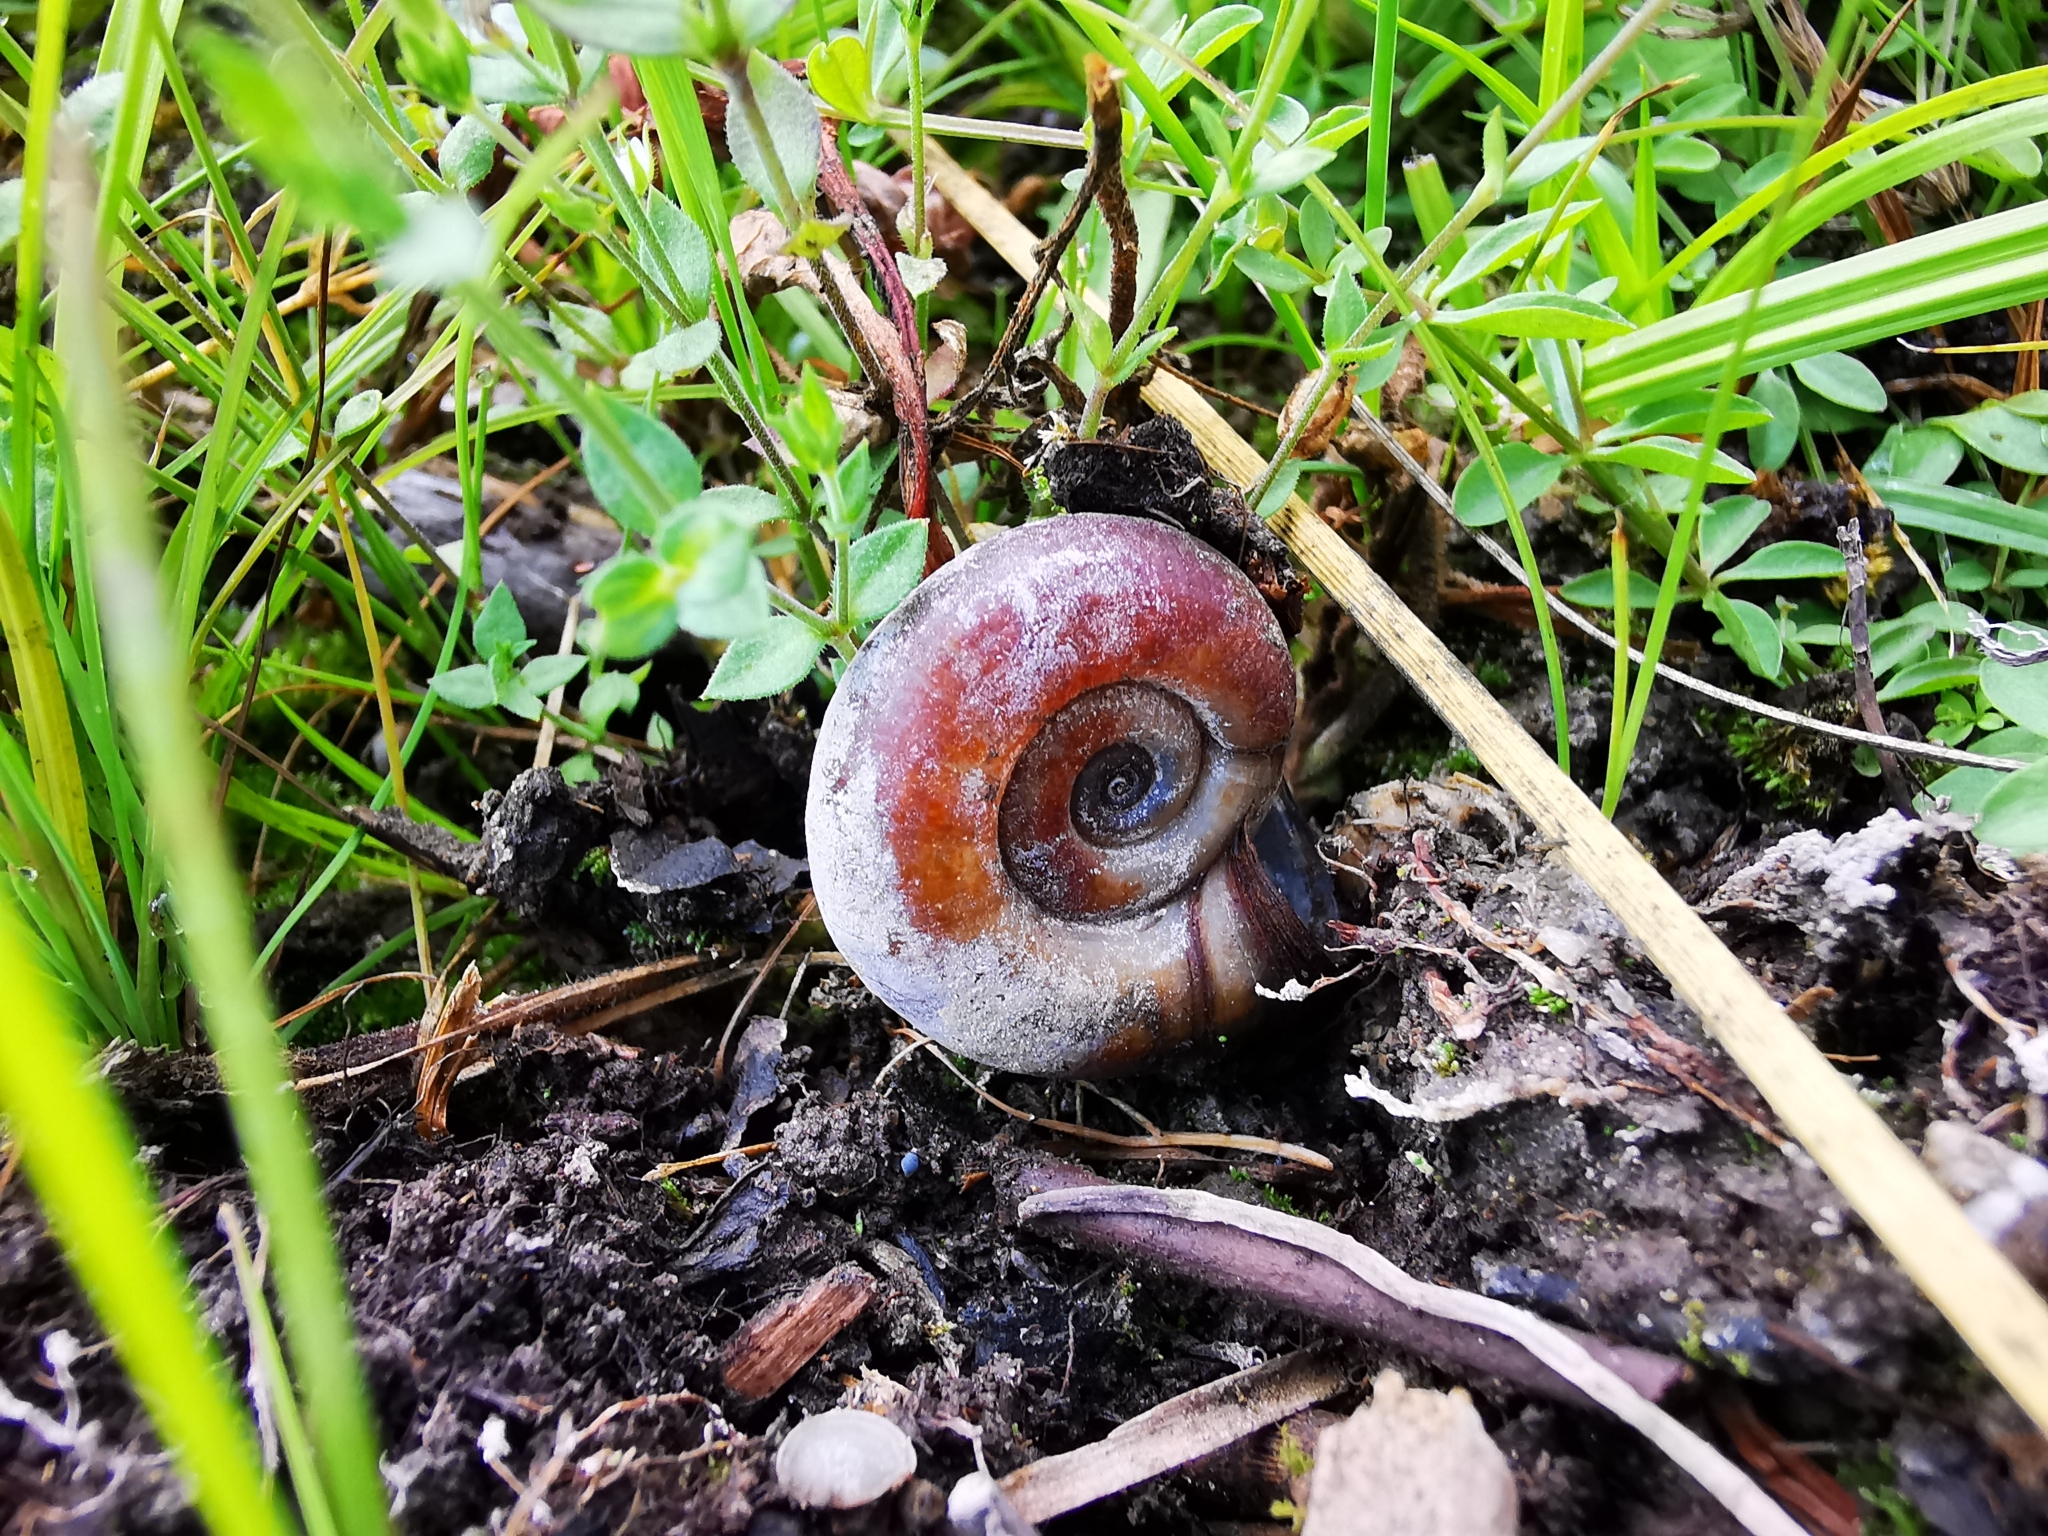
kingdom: Animalia
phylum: Mollusca
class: Gastropoda
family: Planorbidae
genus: Planorbarius
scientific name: Planorbarius corneus
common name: Great ramshorn
